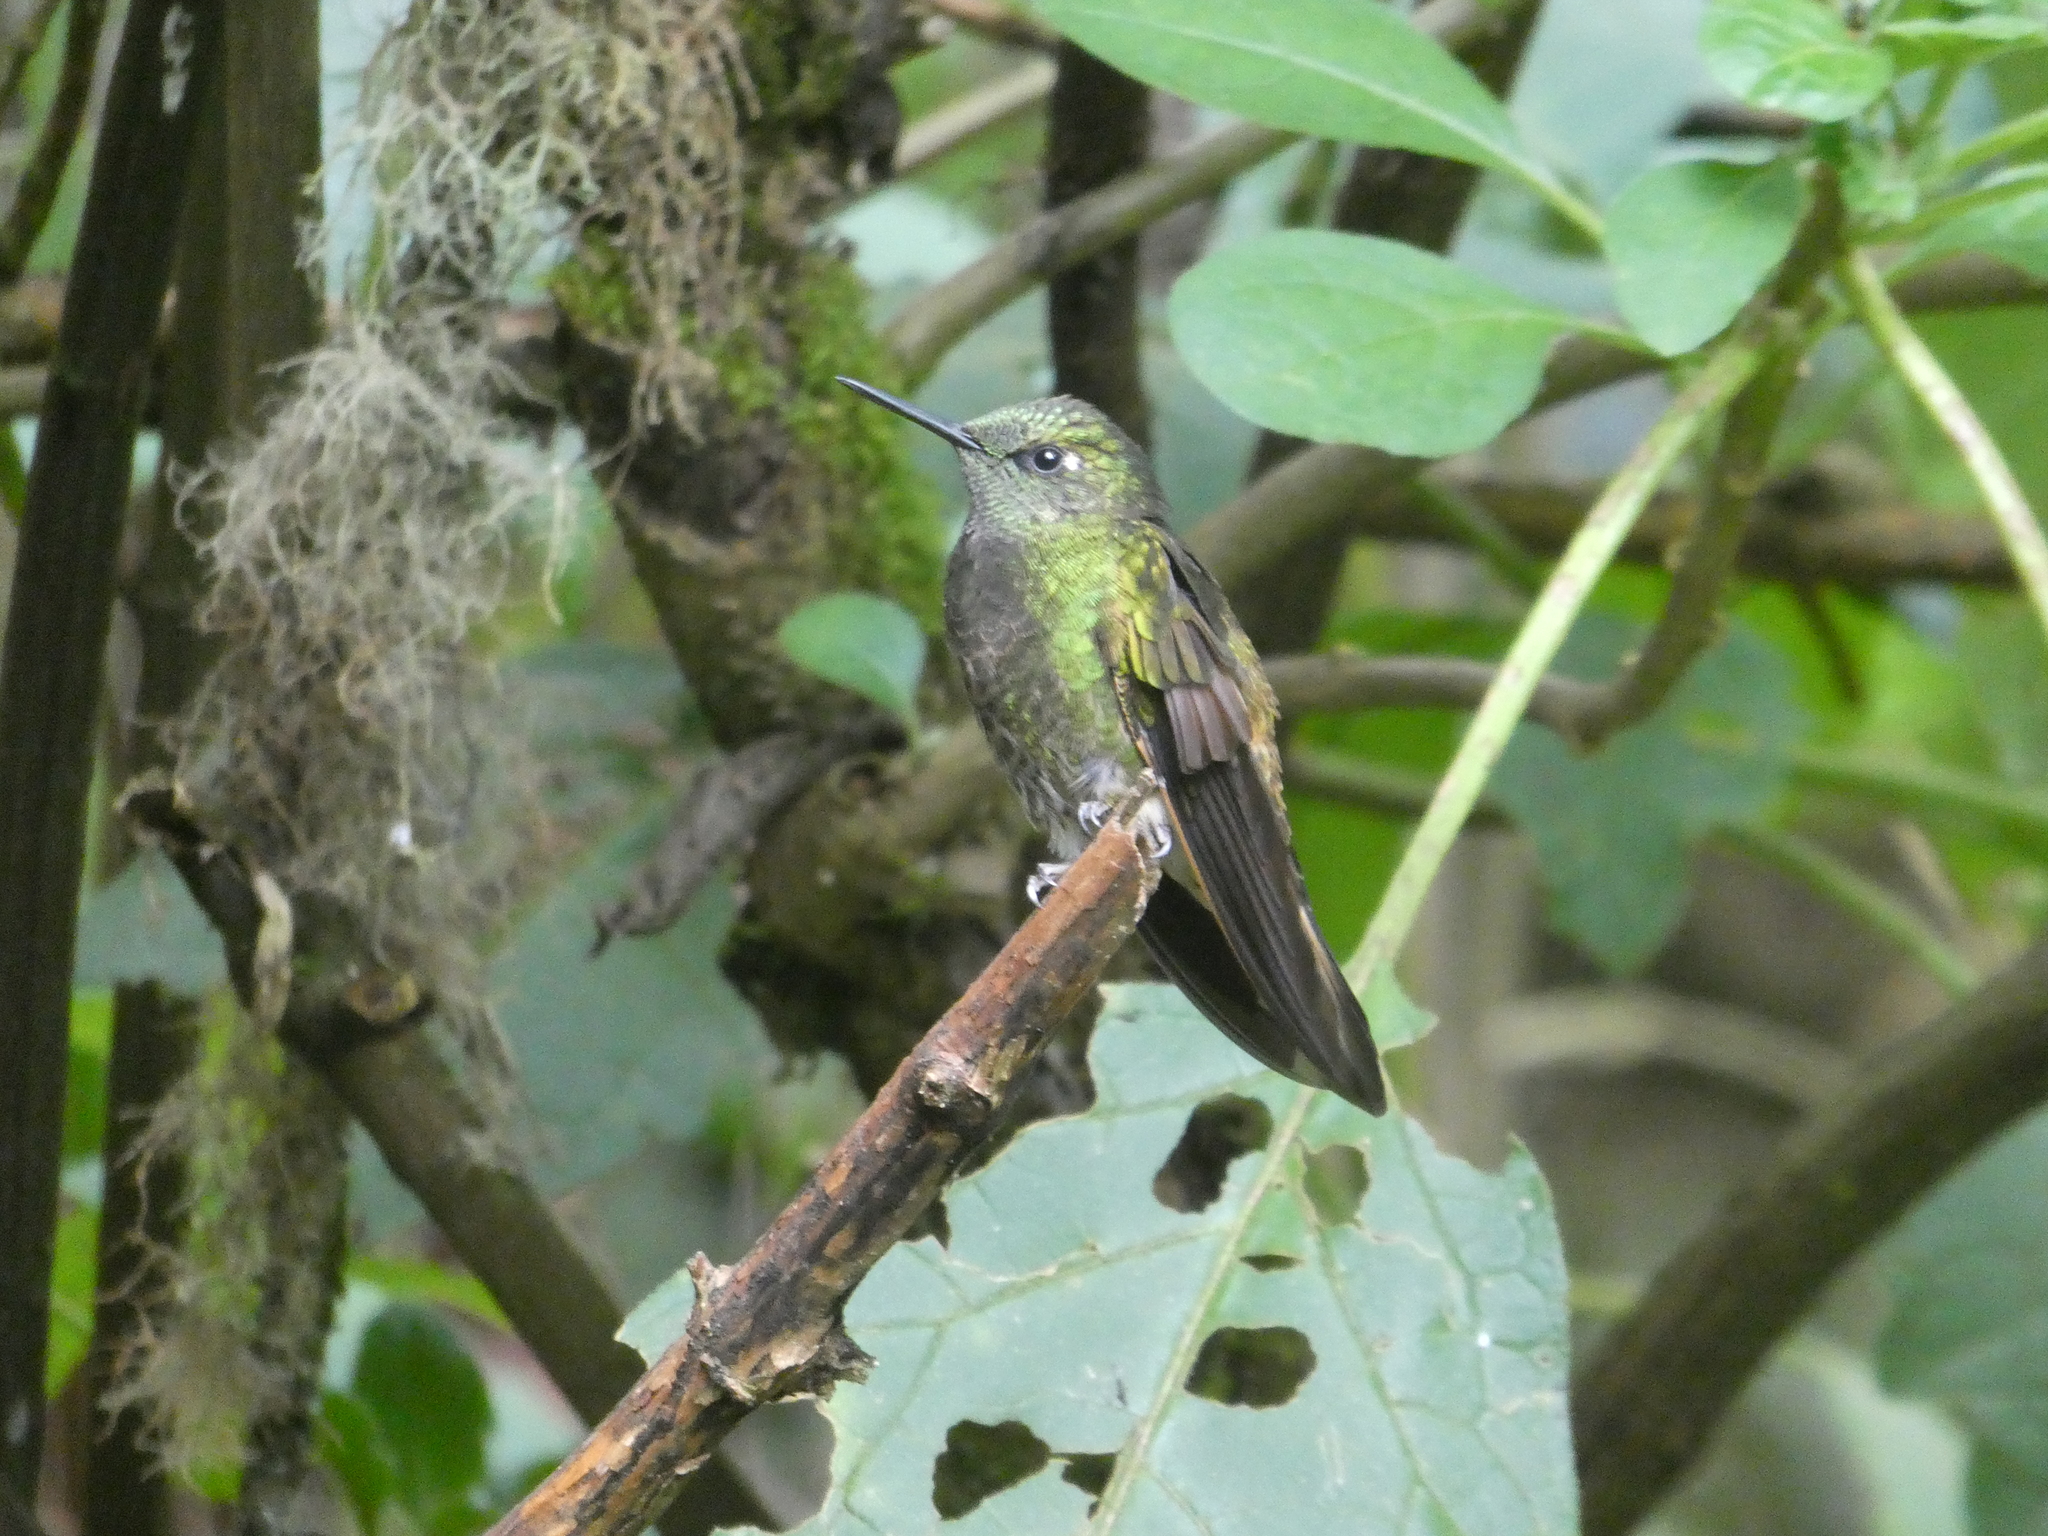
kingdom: Animalia
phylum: Chordata
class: Aves
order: Apodiformes
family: Trochilidae
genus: Boissonneaua
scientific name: Boissonneaua flavescens
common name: Buff-tailed coronet
